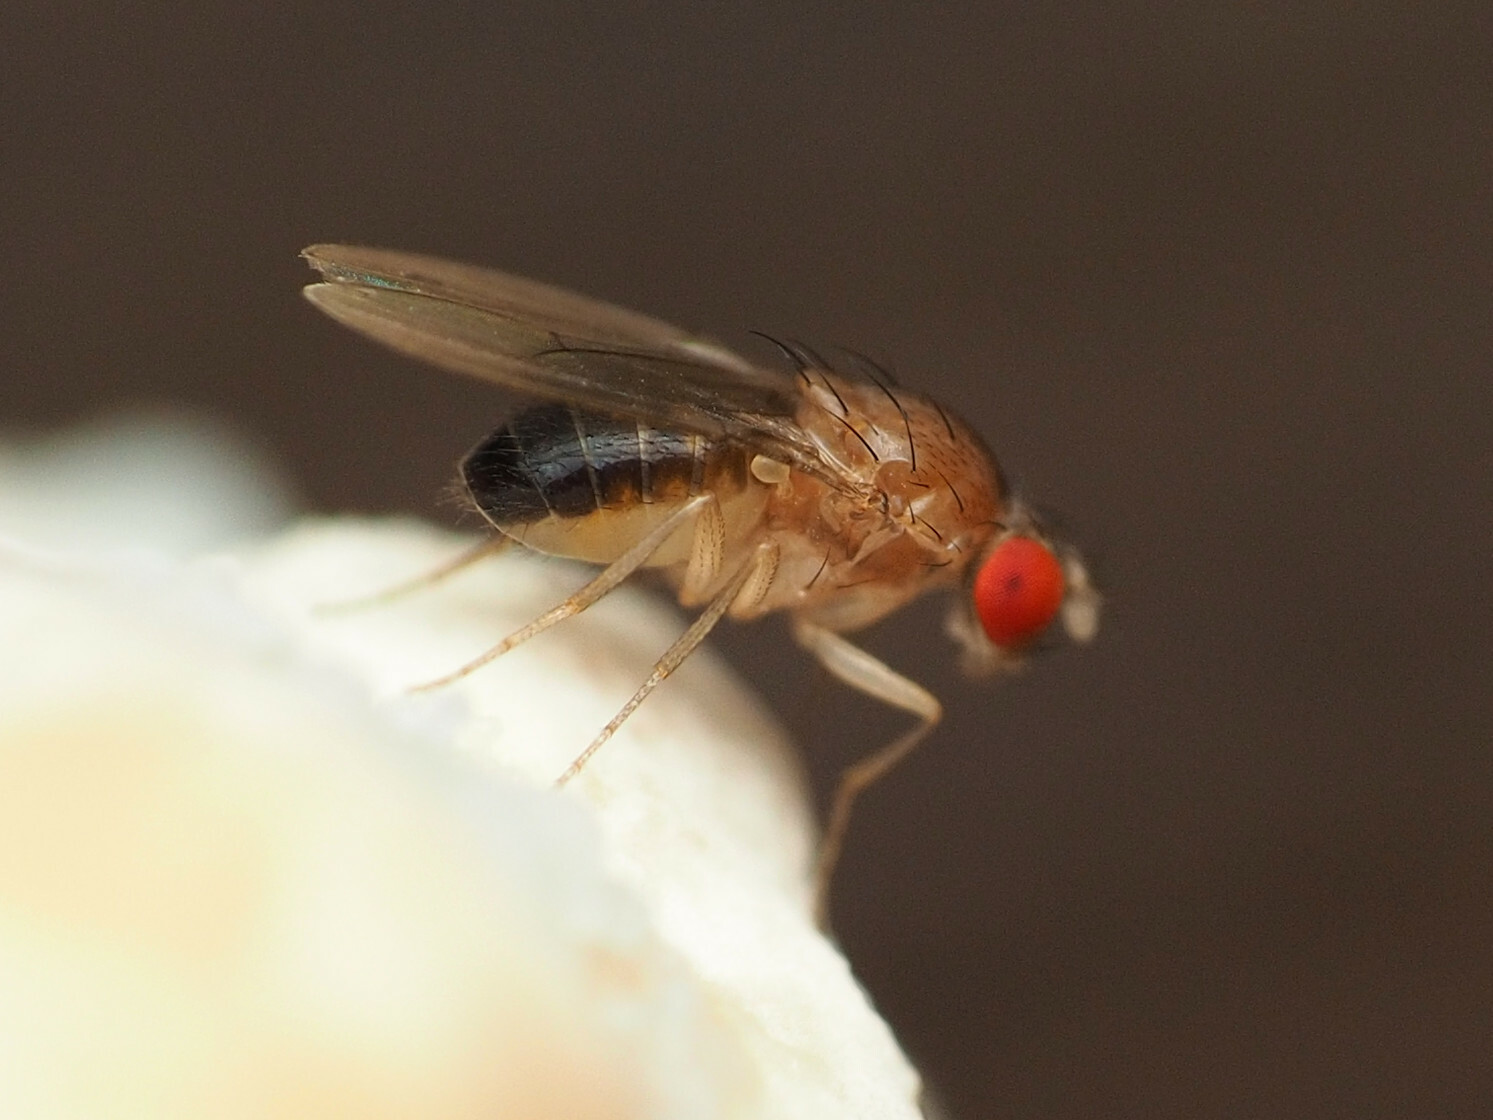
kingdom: Animalia
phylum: Arthropoda
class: Insecta
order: Diptera
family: Drosophilidae
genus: Hirtodrosophila
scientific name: Hirtodrosophila duncani
